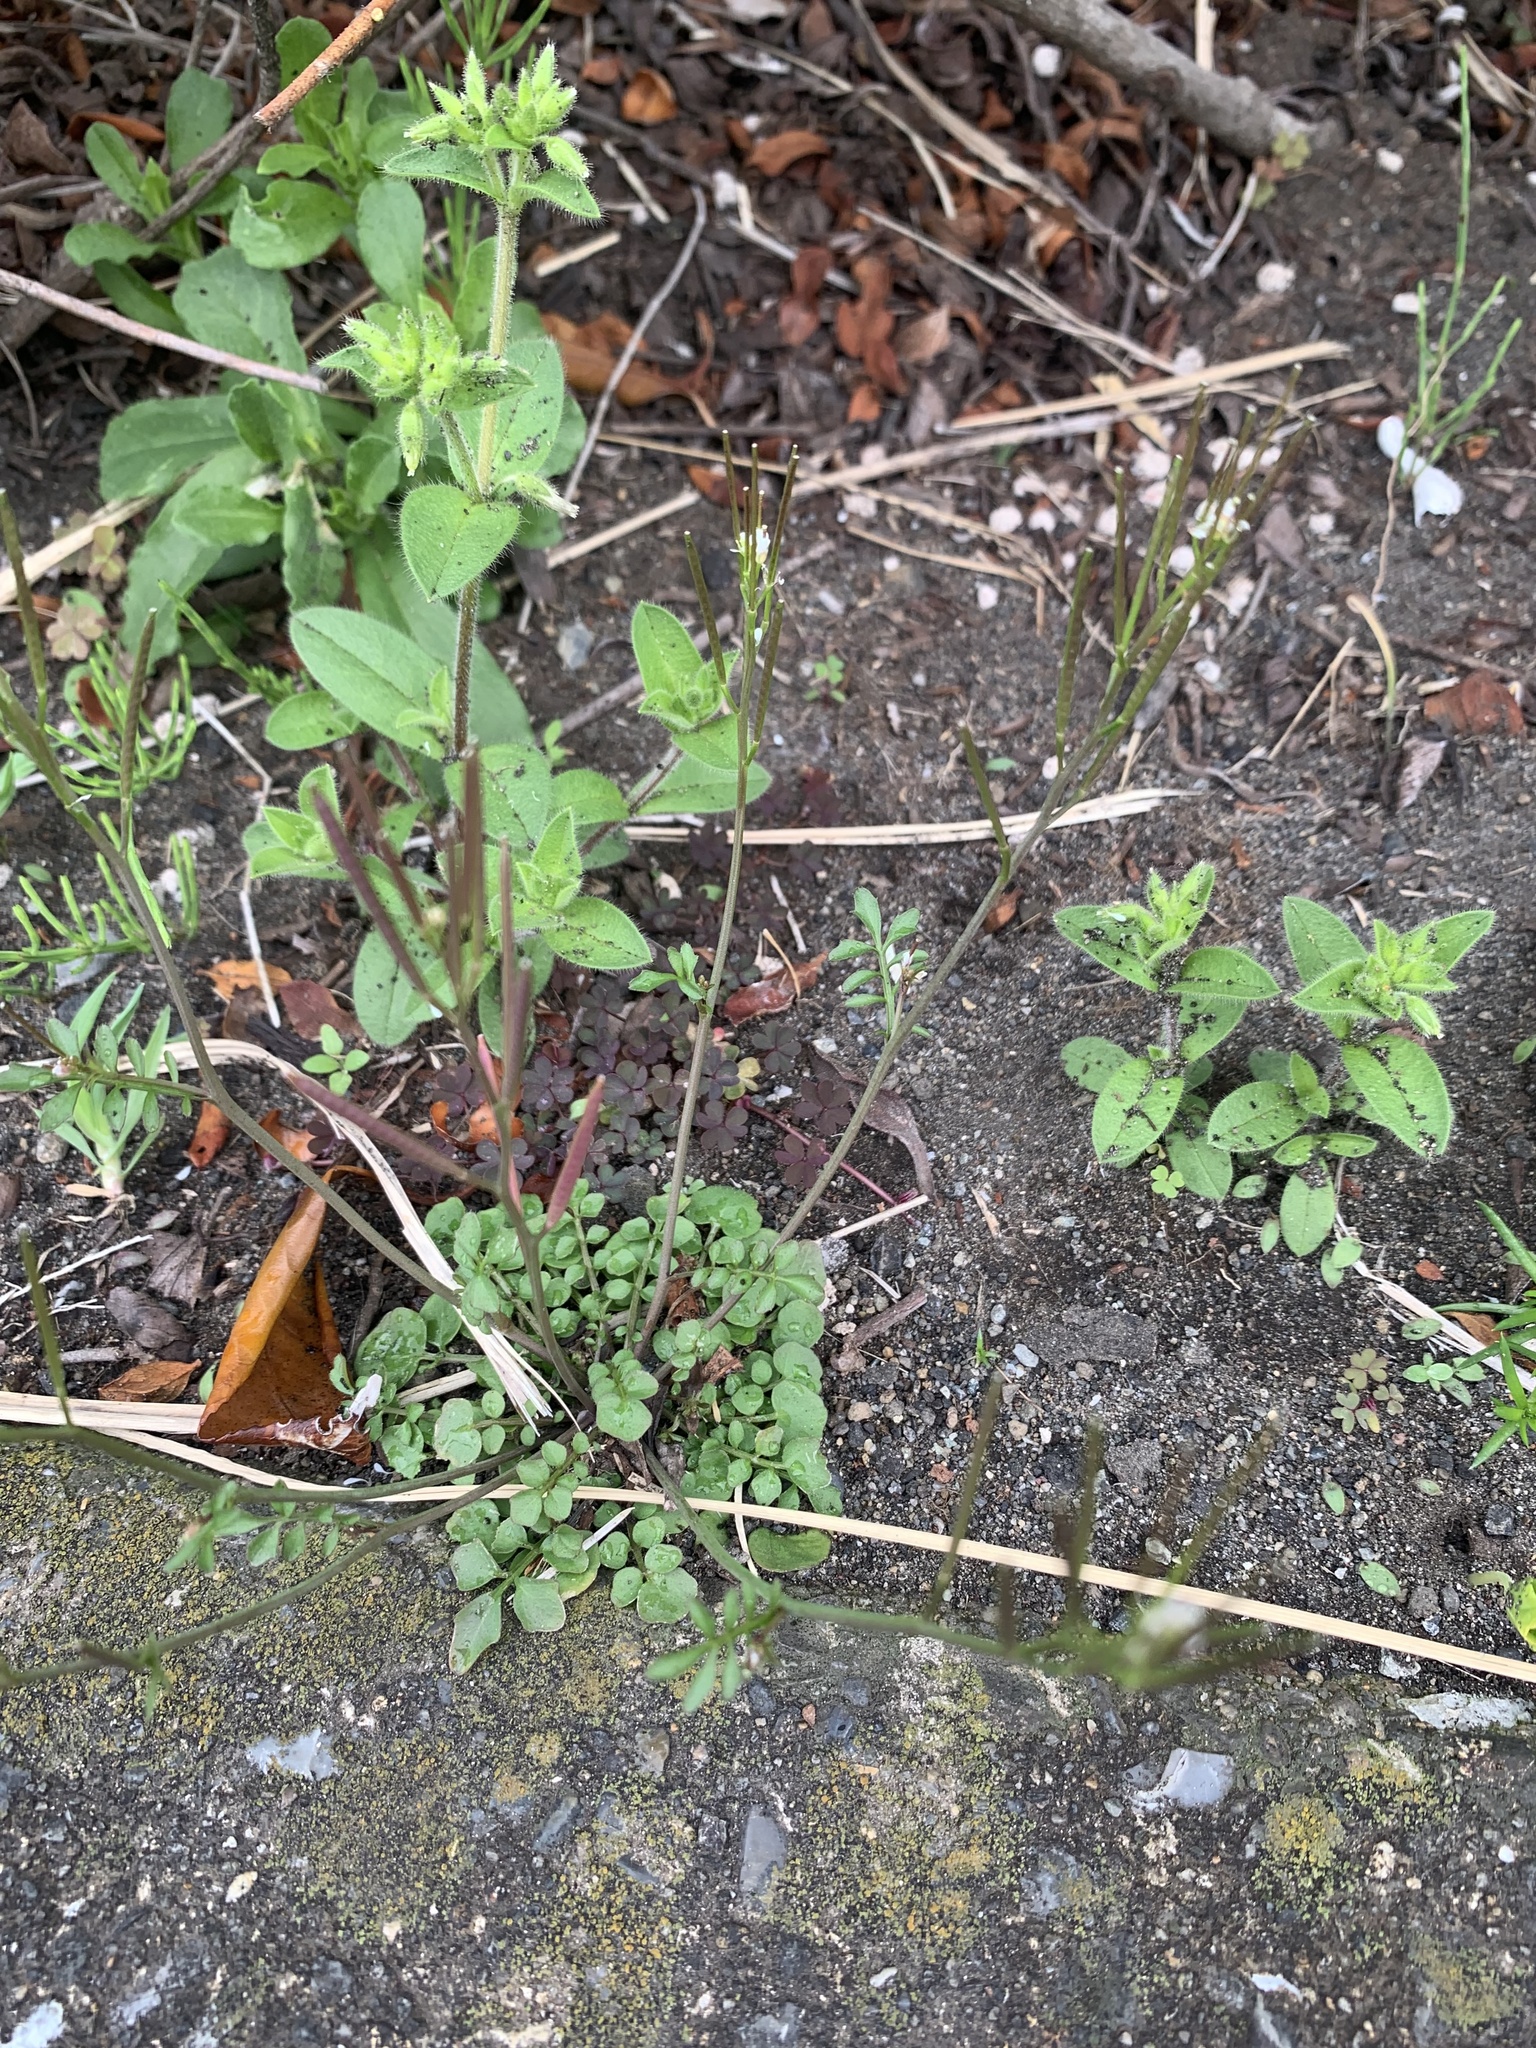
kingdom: Plantae
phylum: Tracheophyta
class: Magnoliopsida
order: Brassicales
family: Brassicaceae
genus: Cardamine
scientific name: Cardamine hirsuta
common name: Hairy bittercress
